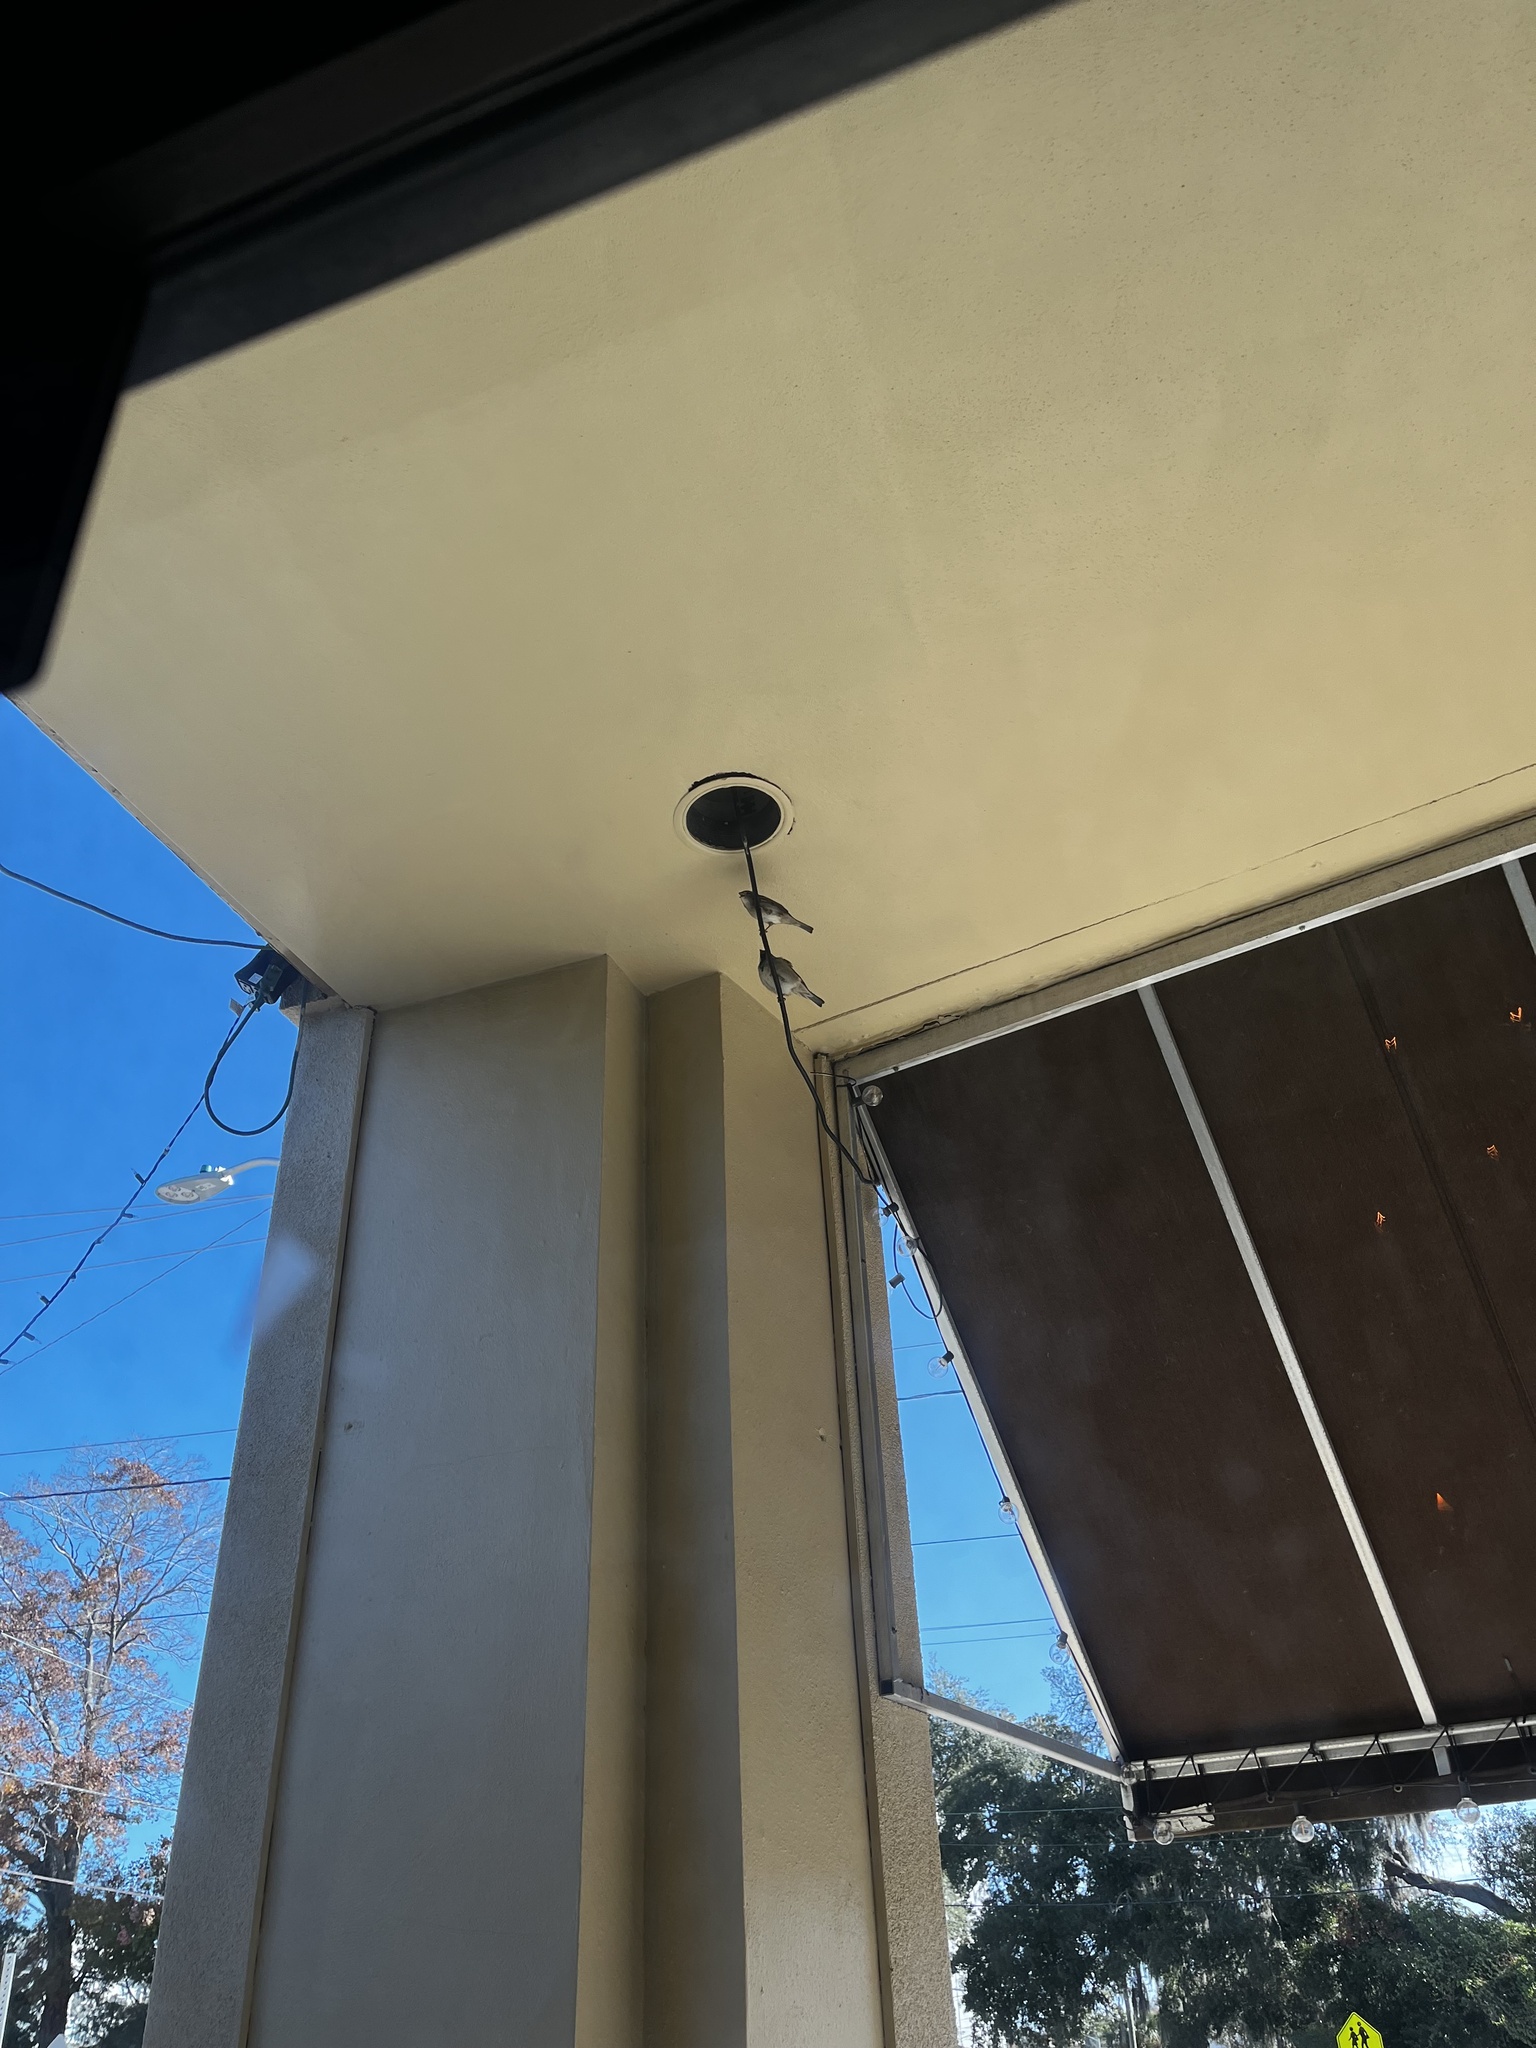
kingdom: Animalia
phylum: Chordata
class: Aves
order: Passeriformes
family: Passeridae
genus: Passer
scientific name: Passer domesticus
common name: House sparrow
